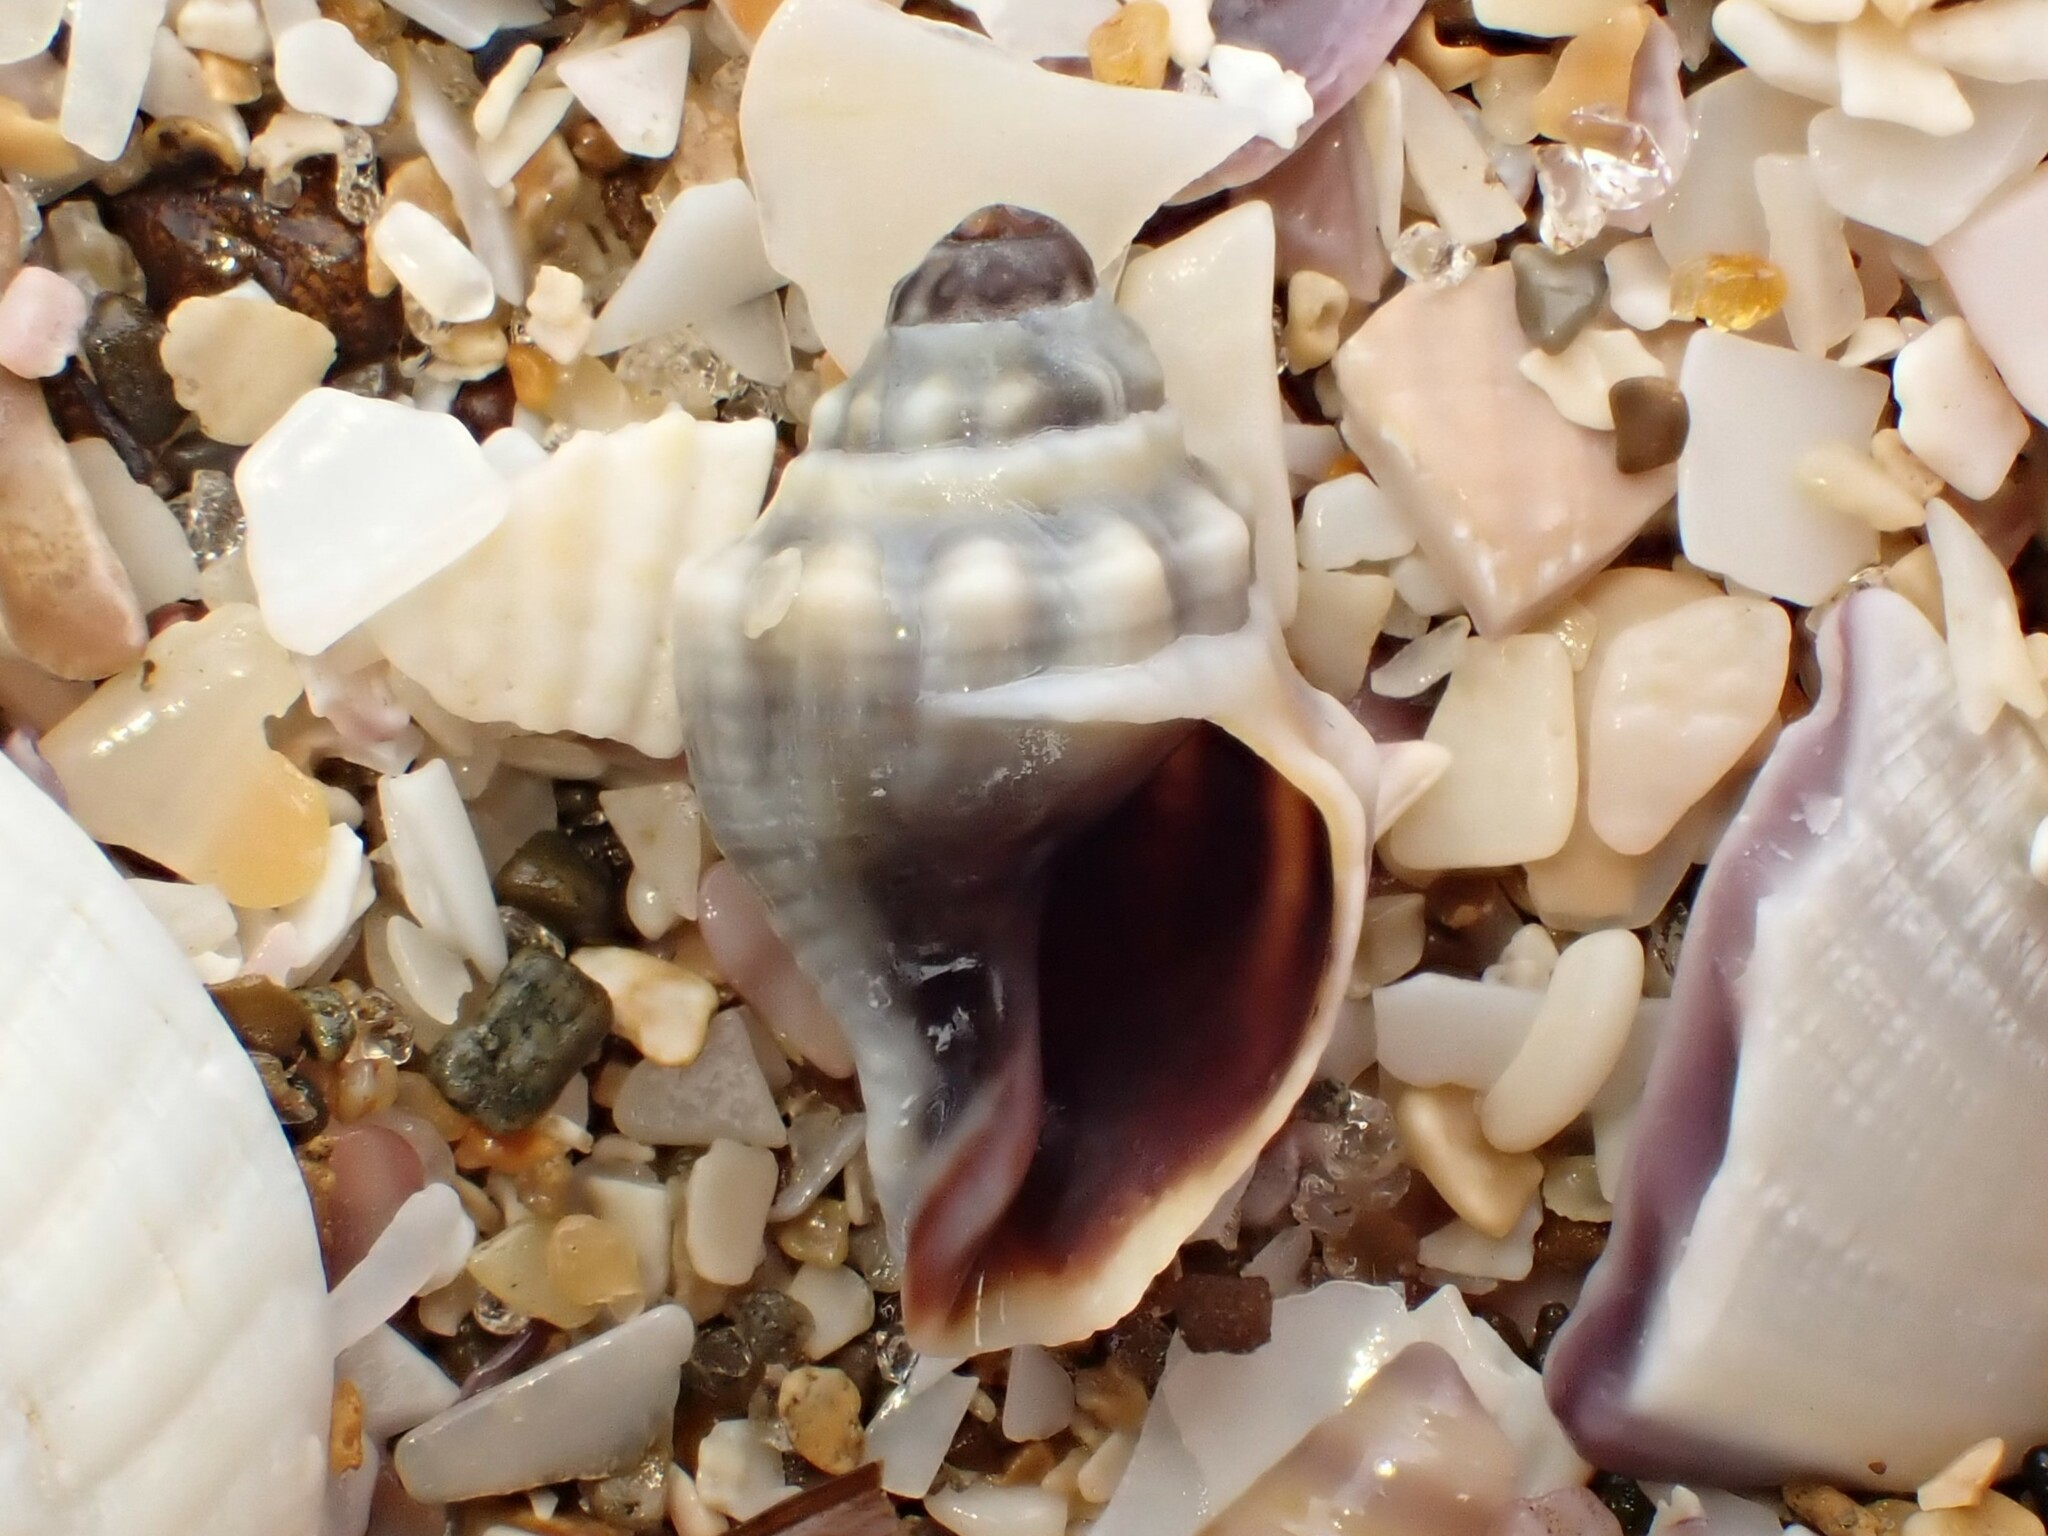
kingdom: Animalia
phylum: Mollusca
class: Gastropoda
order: Neogastropoda
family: Cominellidae
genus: Cominella
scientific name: Cominella glandiformis
